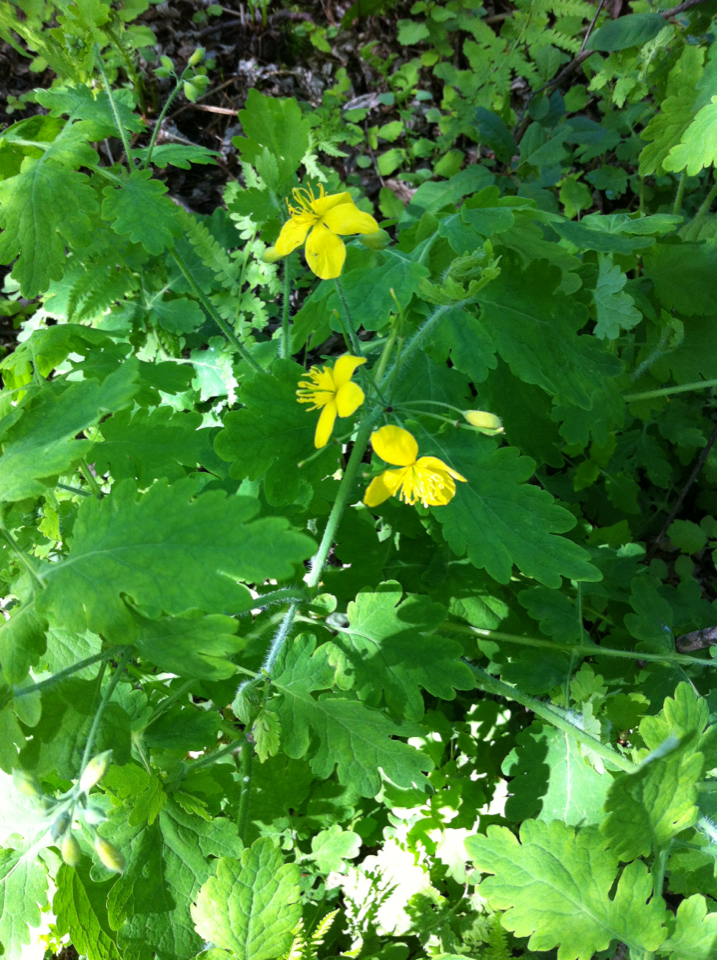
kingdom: Plantae
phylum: Tracheophyta
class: Magnoliopsida
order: Ranunculales
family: Papaveraceae
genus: Chelidonium
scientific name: Chelidonium majus
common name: Greater celandine
